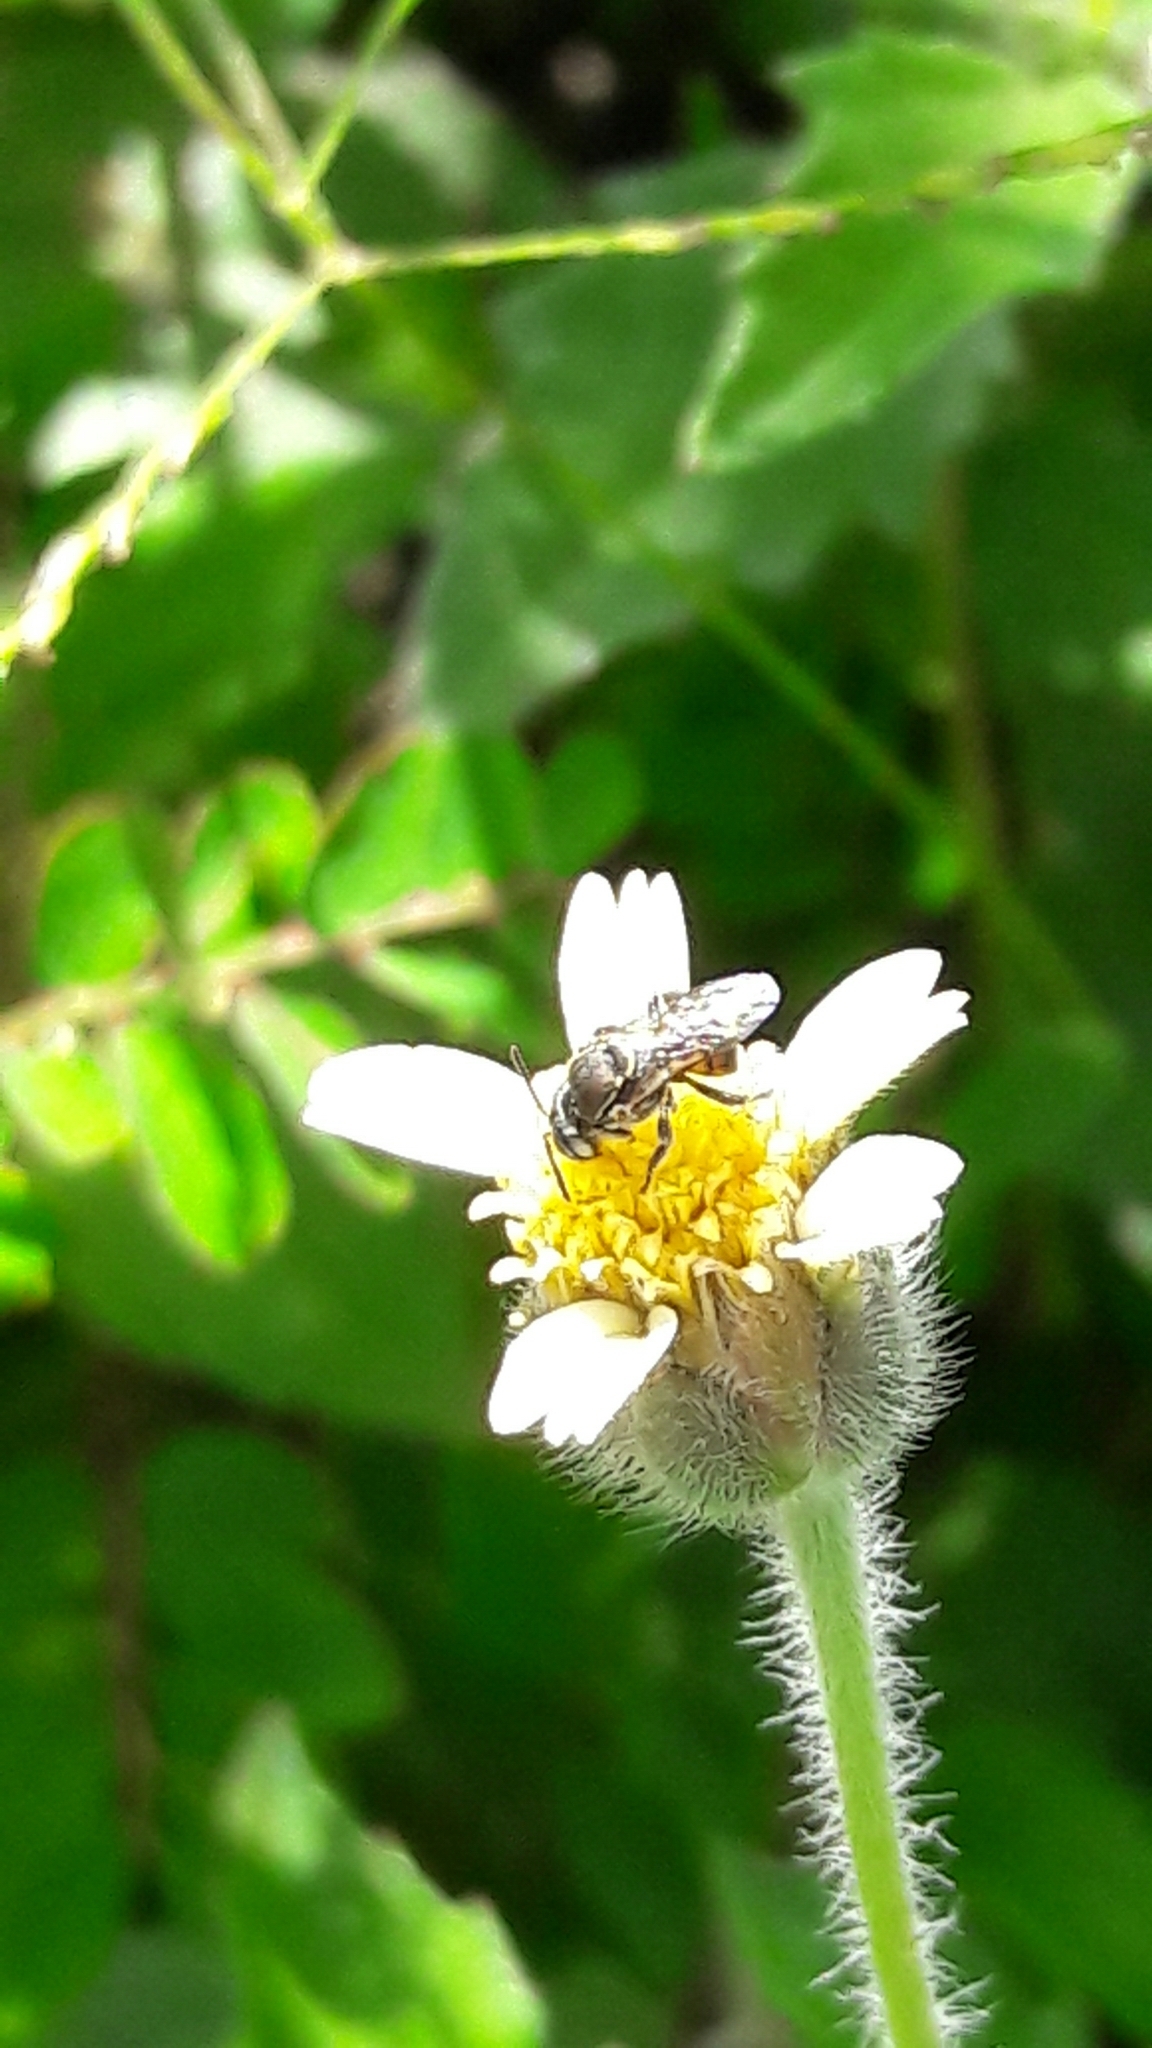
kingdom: Animalia
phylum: Arthropoda
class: Insecta
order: Hymenoptera
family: Apidae
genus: Paratrigona
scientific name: Paratrigona lineata
